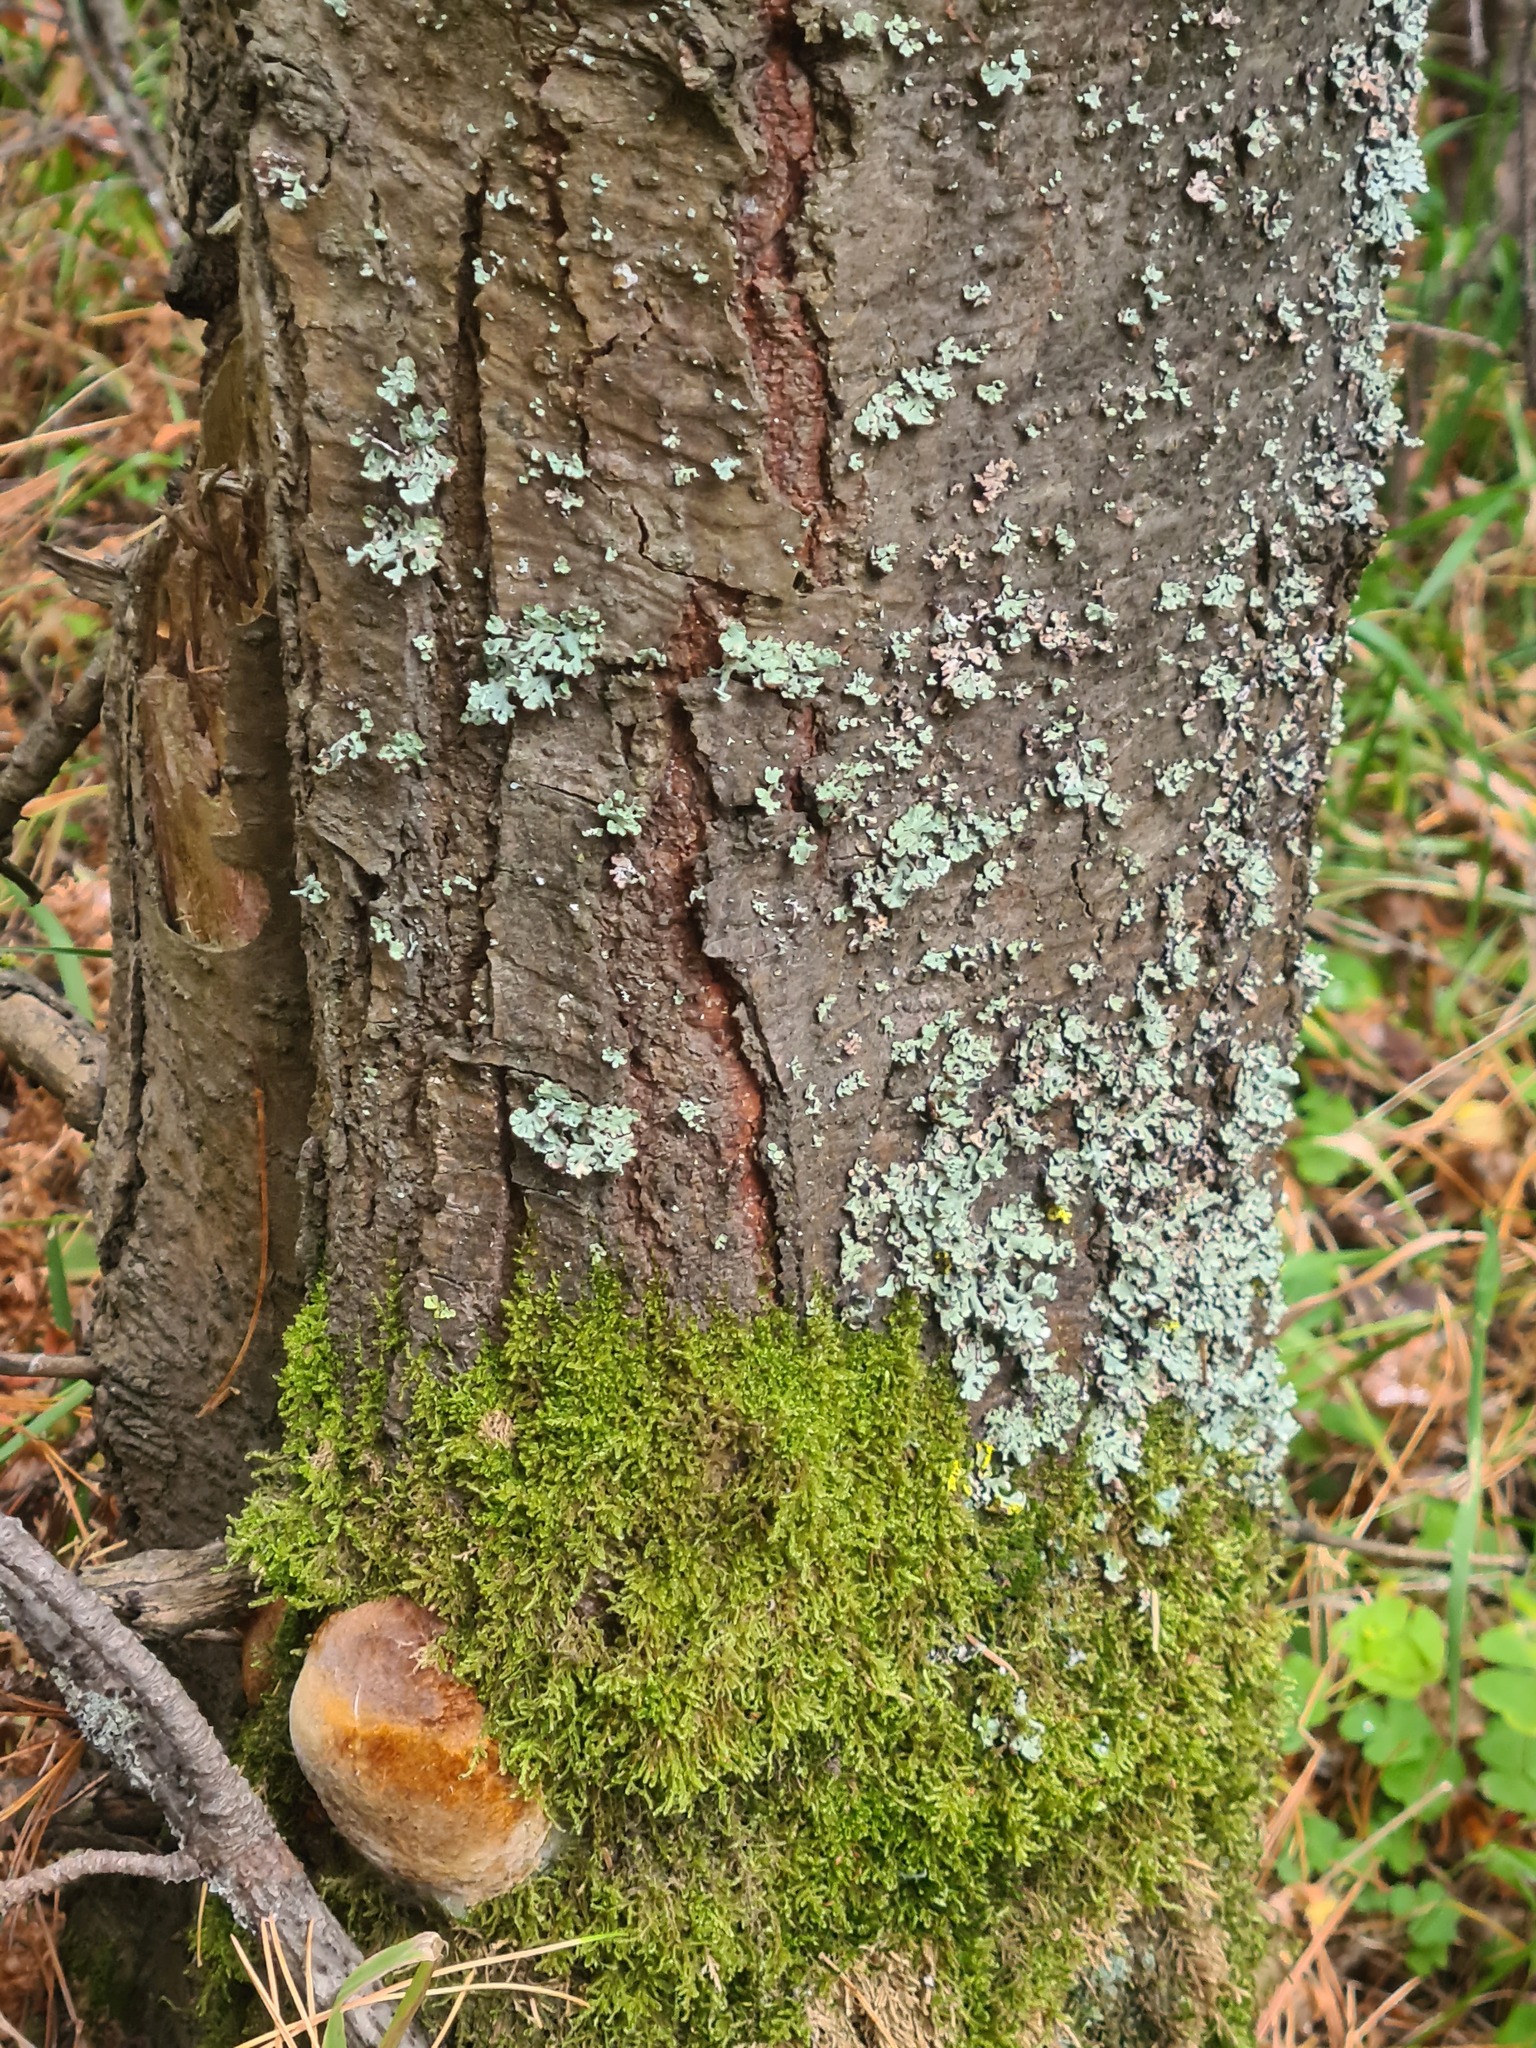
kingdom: Fungi
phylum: Basidiomycota
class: Agaricomycetes
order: Hymenochaetales
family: Hymenochaetaceae
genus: Phellinus
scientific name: Phellinus hartigii
